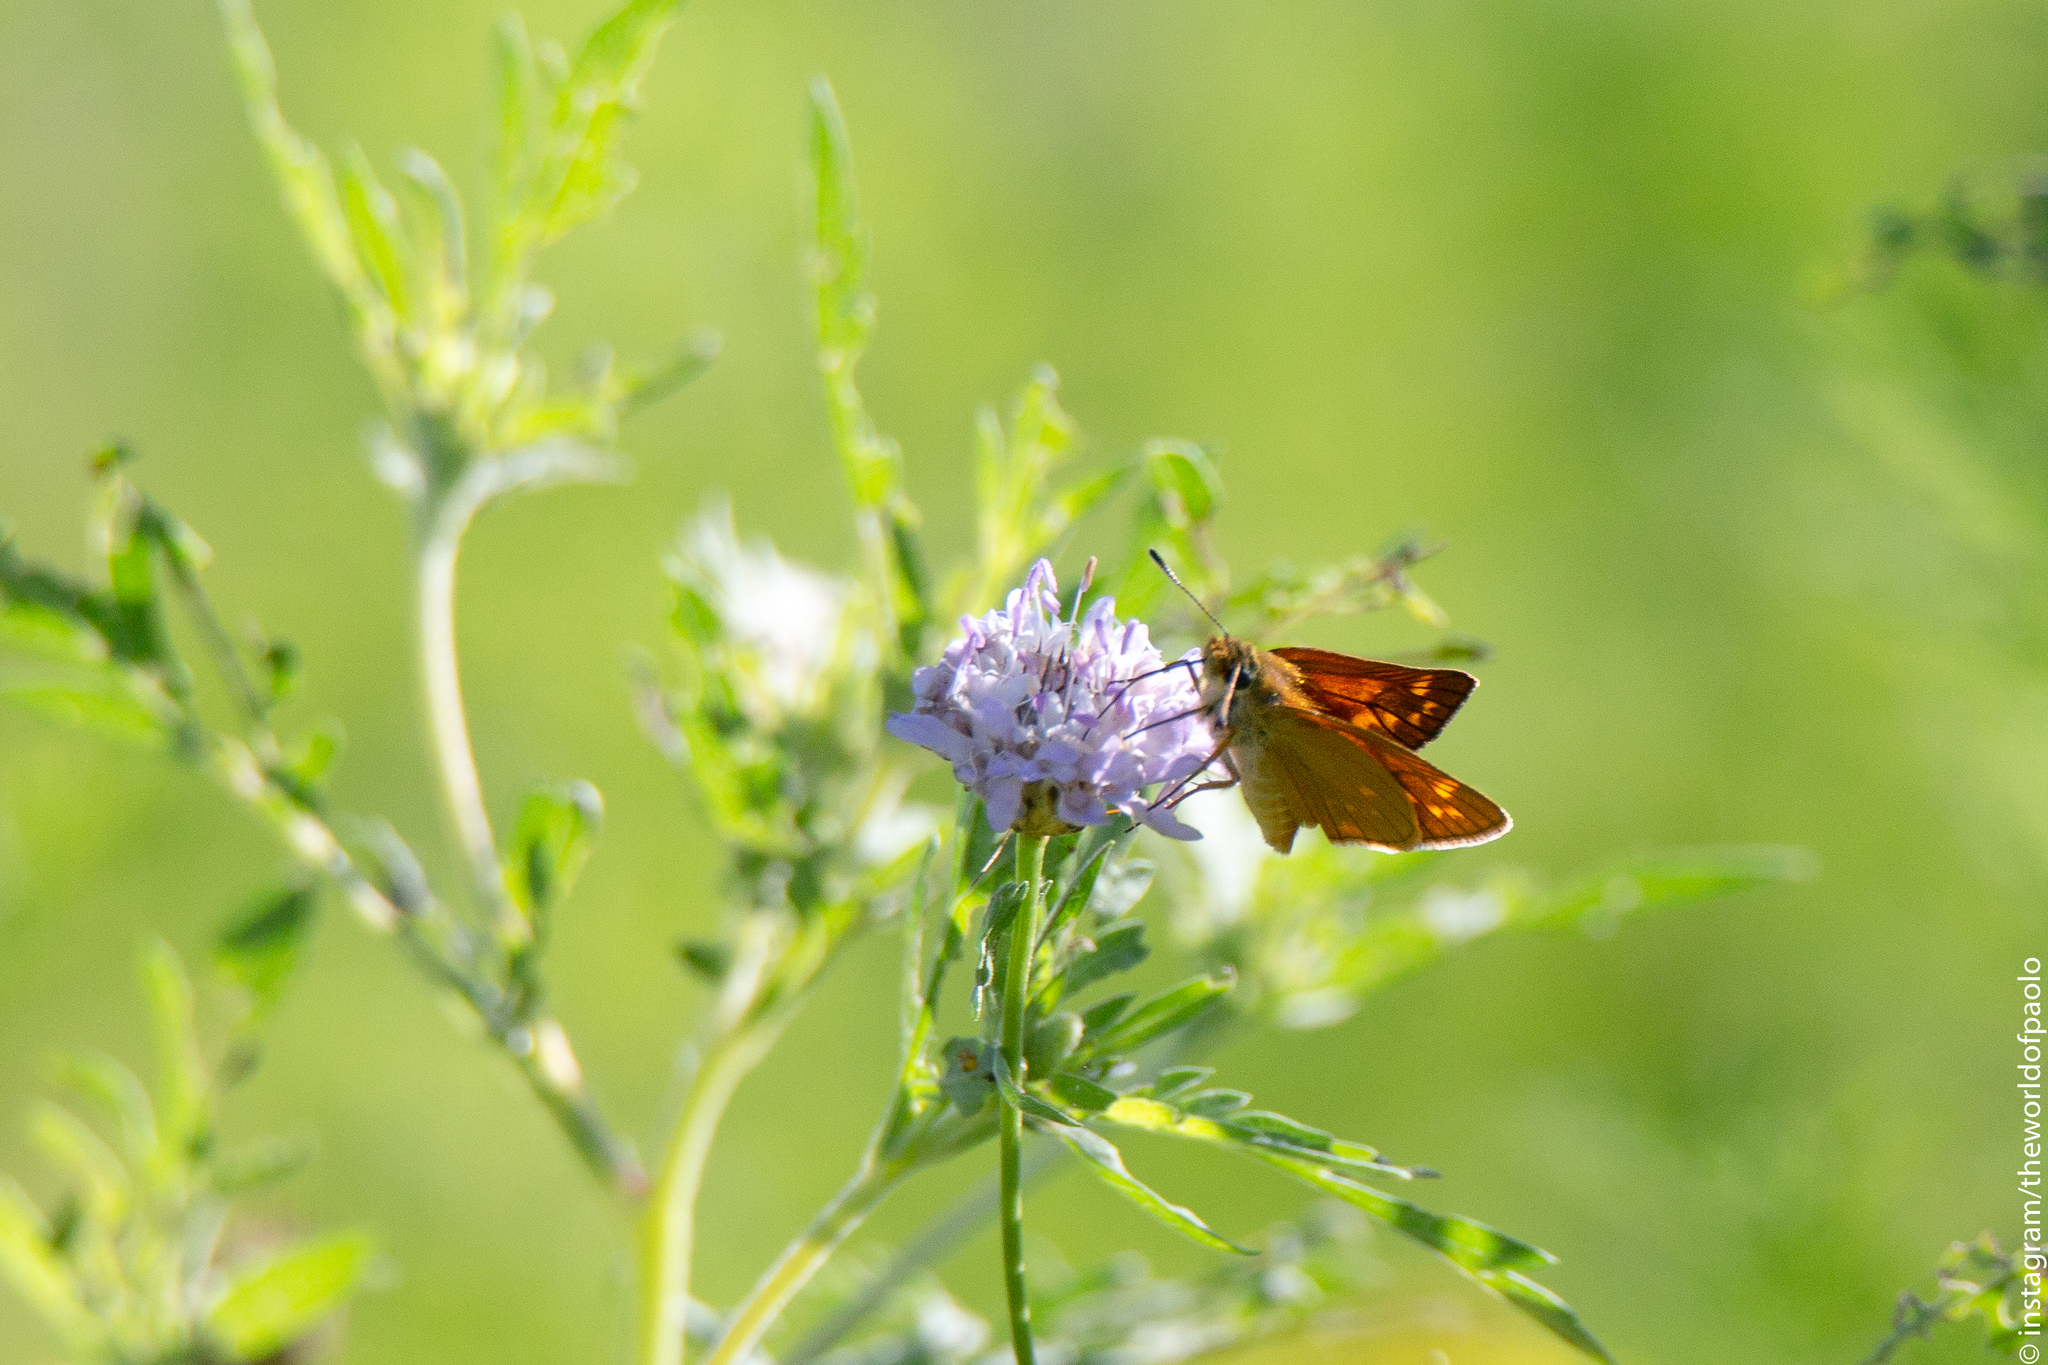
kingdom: Animalia
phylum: Arthropoda
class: Insecta
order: Lepidoptera
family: Hesperiidae
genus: Ochlodes
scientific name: Ochlodes venata
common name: Large skipper
